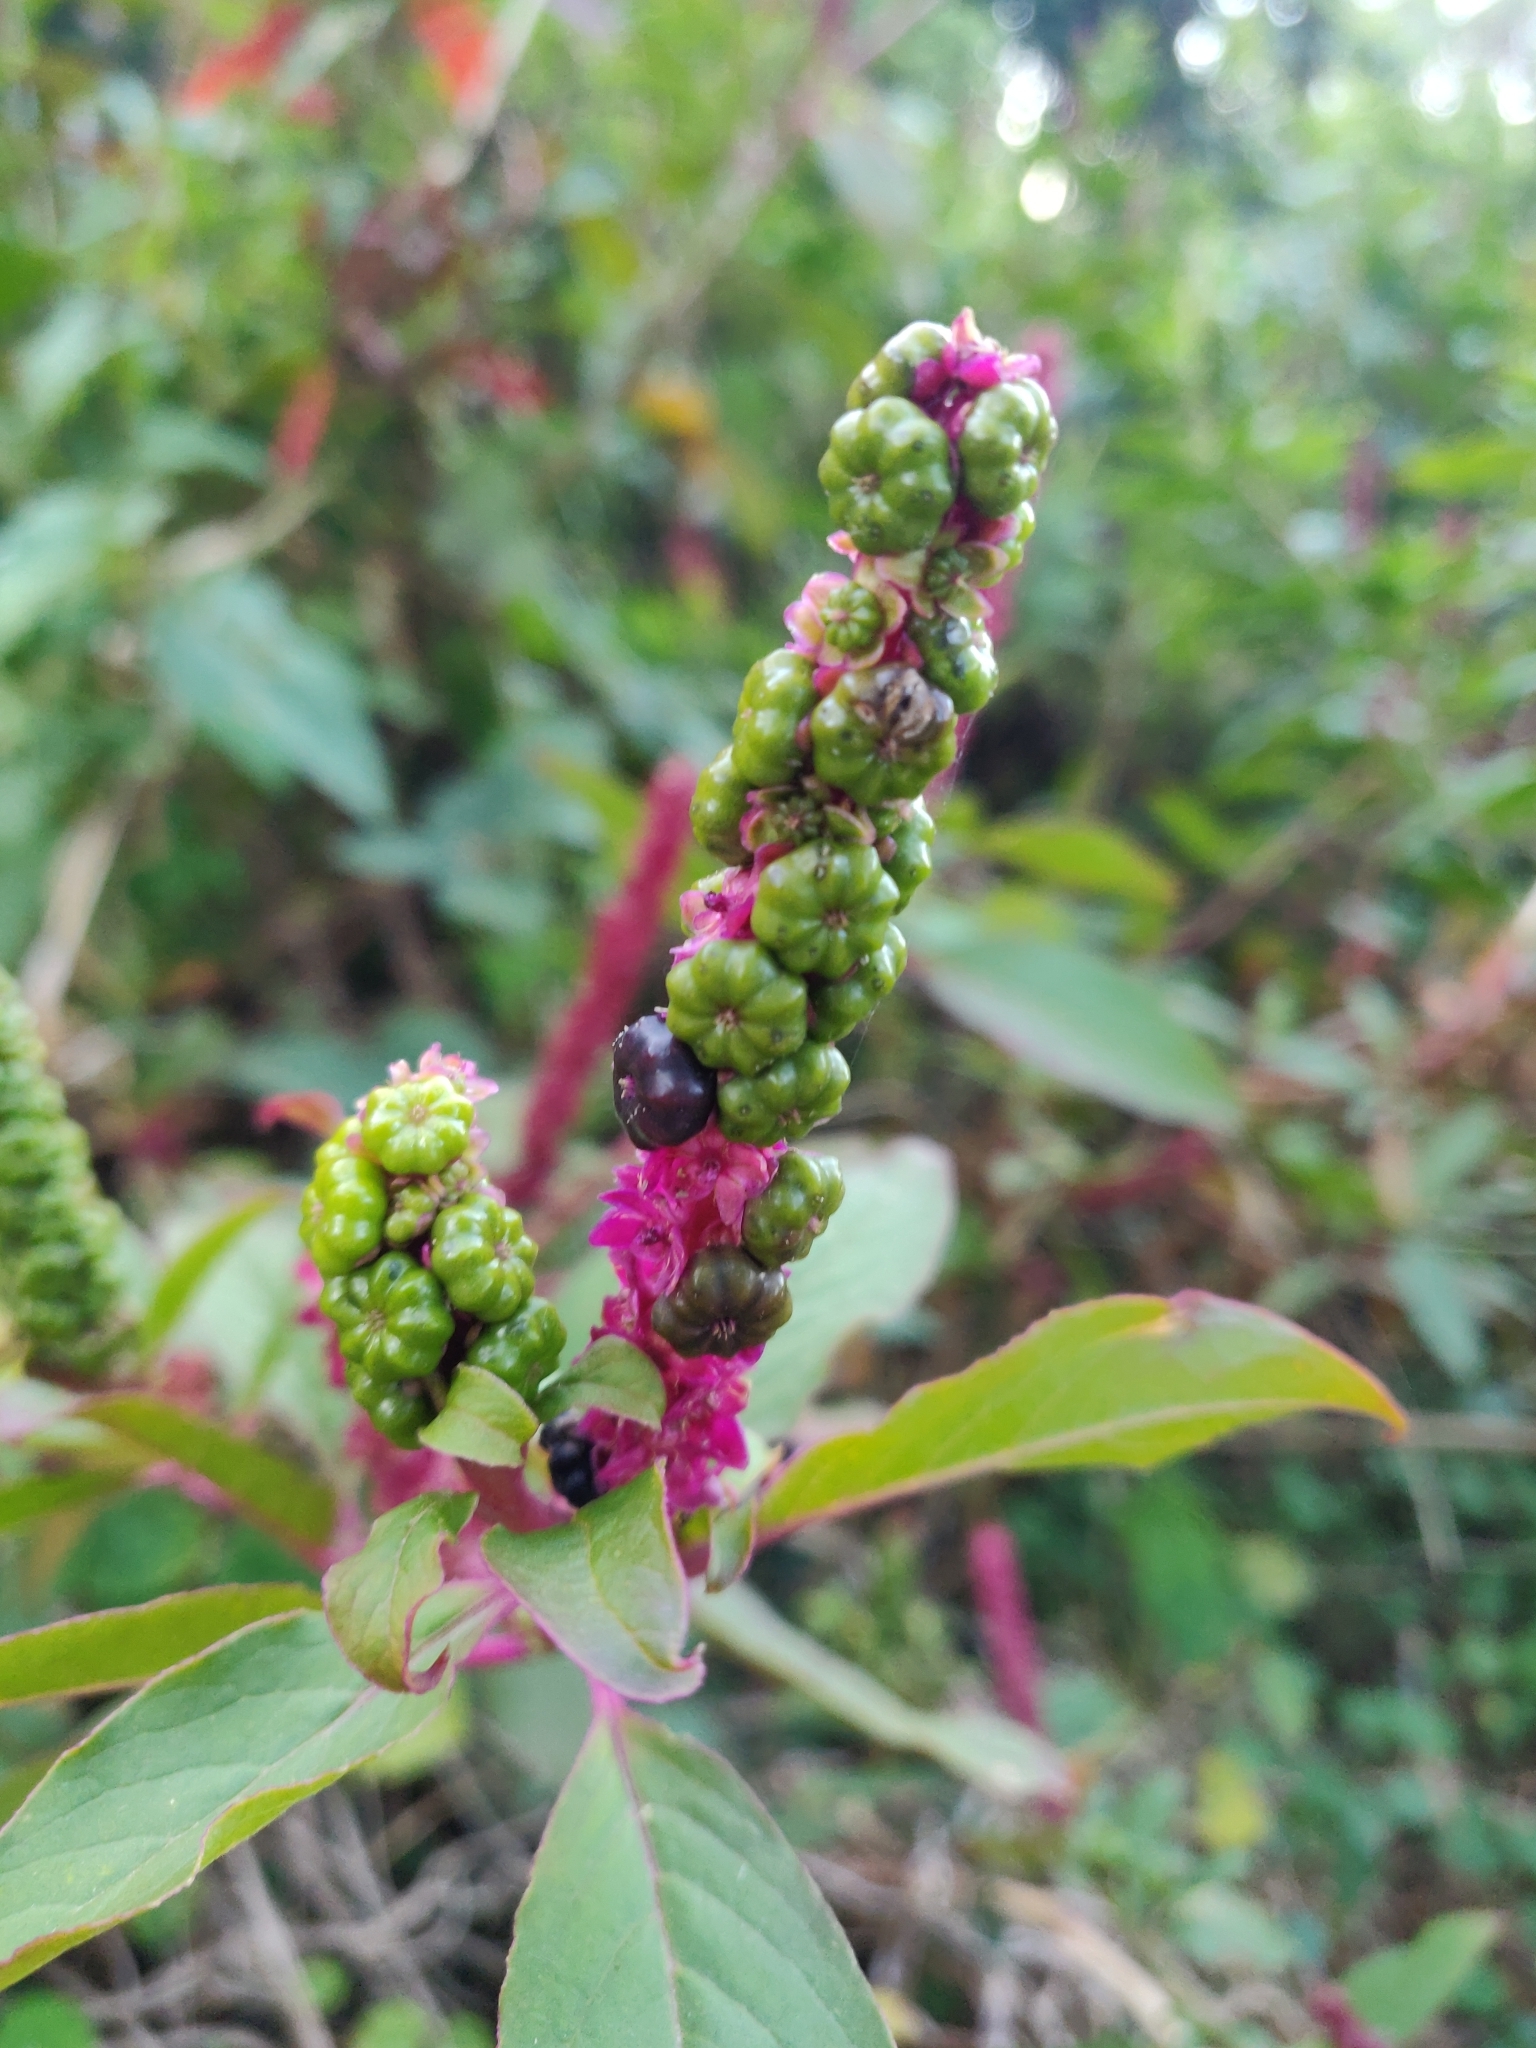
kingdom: Plantae
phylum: Tracheophyta
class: Magnoliopsida
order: Caryophyllales
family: Phytolaccaceae
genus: Phytolacca
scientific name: Phytolacca icosandra
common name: Button pokeweed
